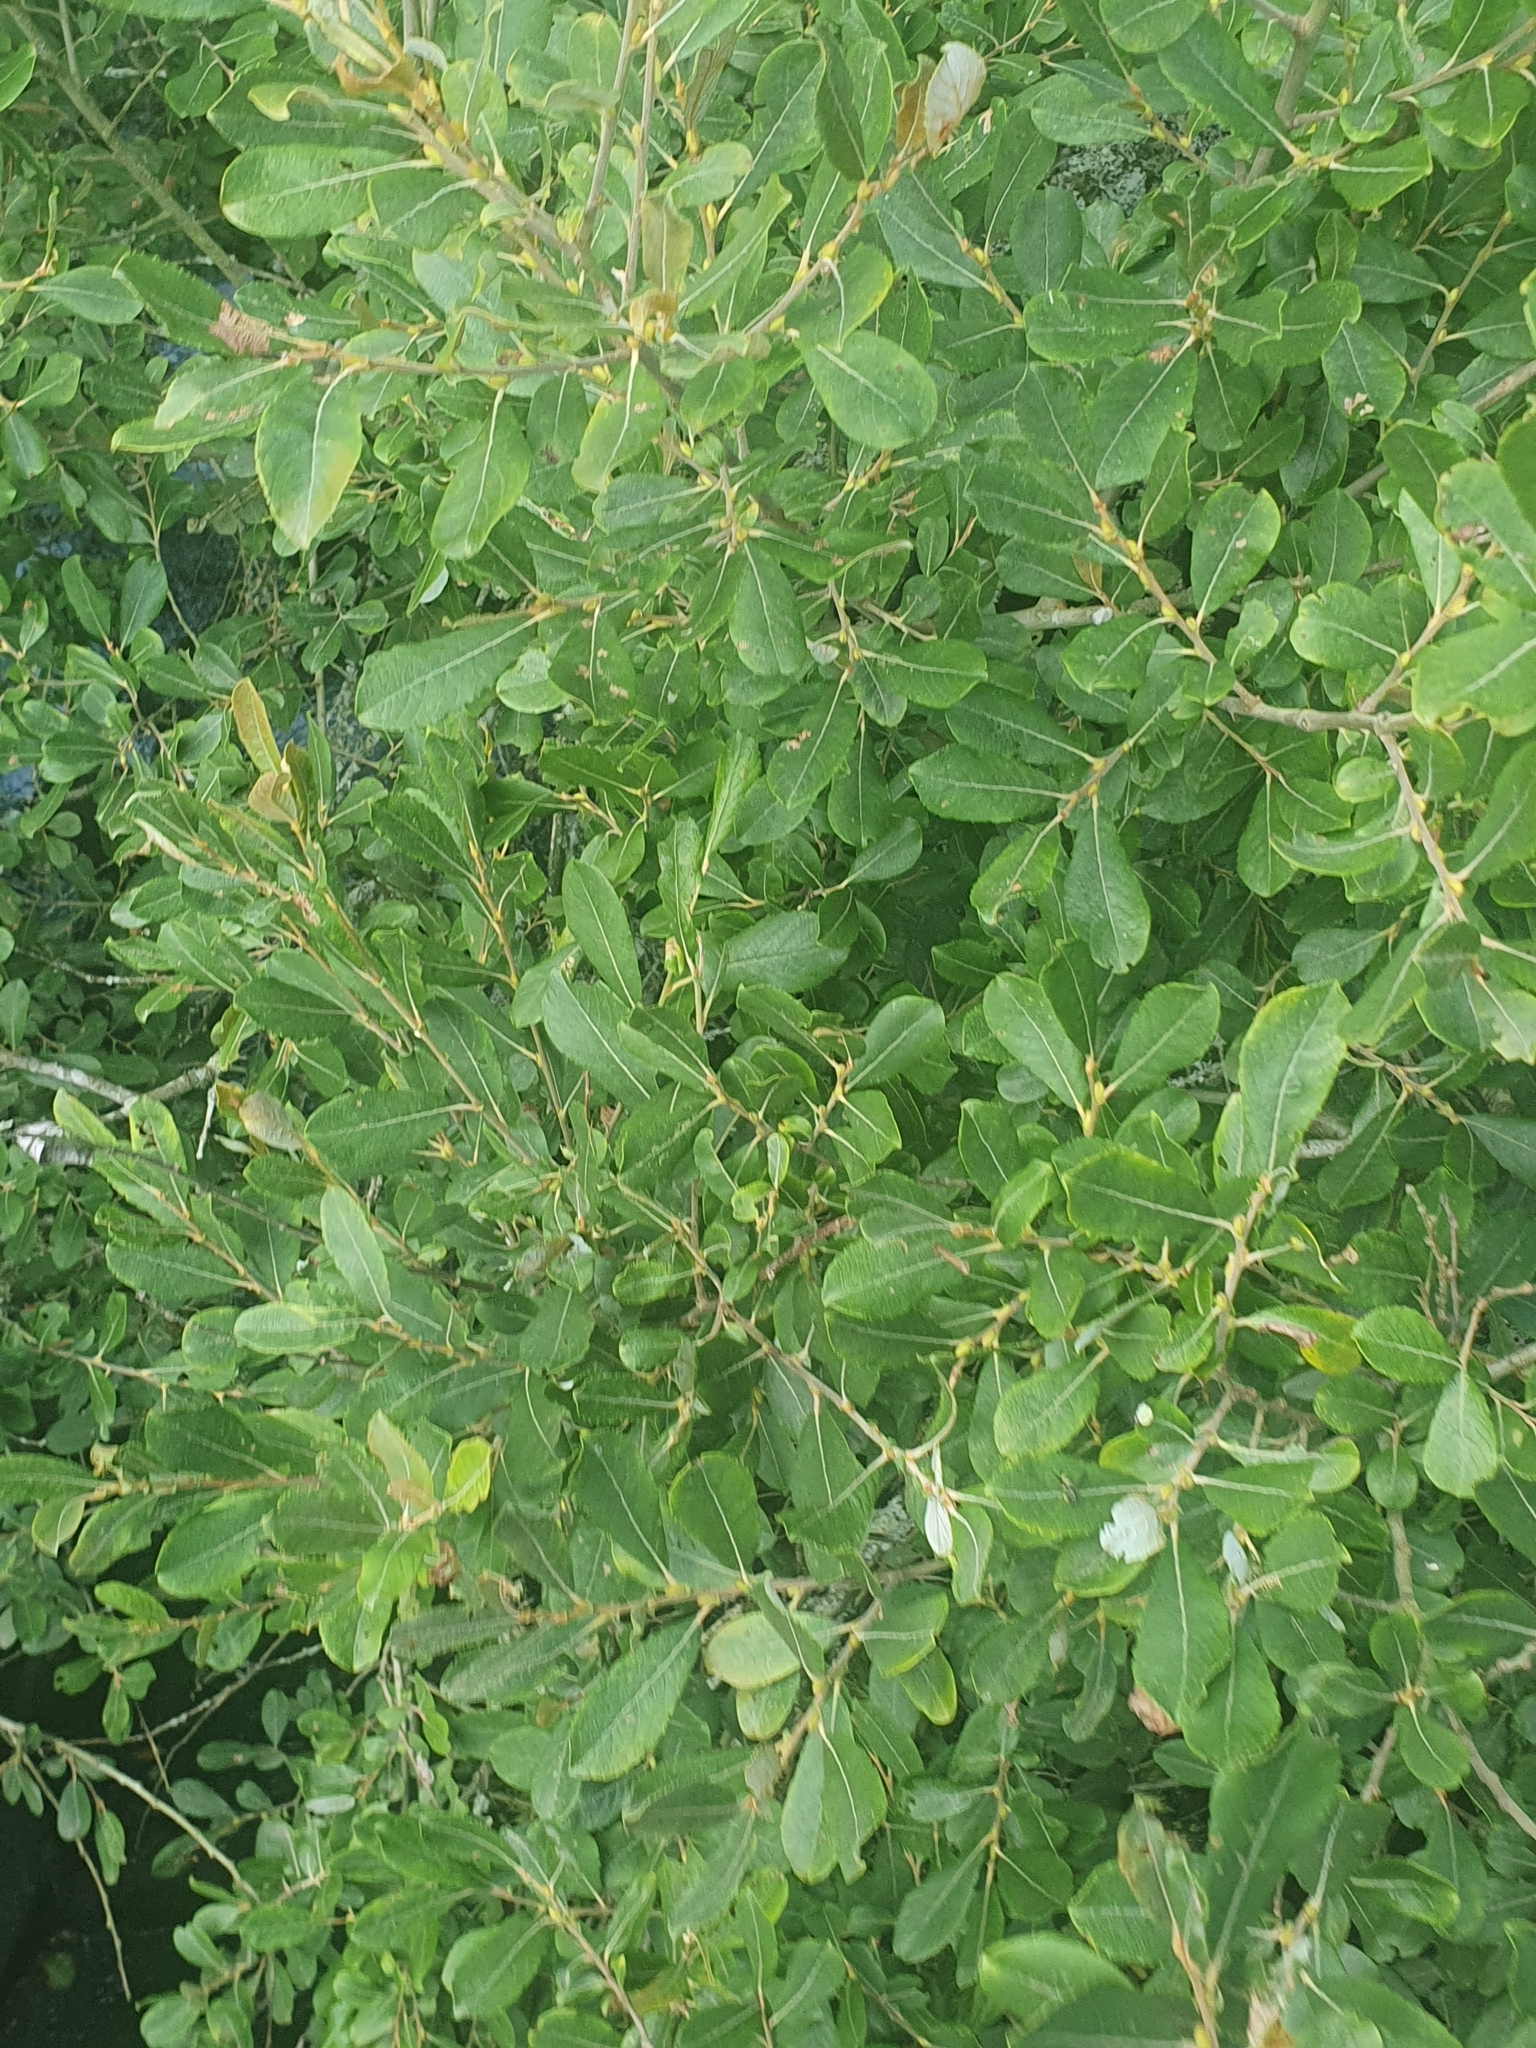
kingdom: Plantae
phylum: Tracheophyta
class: Magnoliopsida
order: Malpighiales
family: Salicaceae
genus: Salix
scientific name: Salix atrocinerea
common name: Rusty willow
